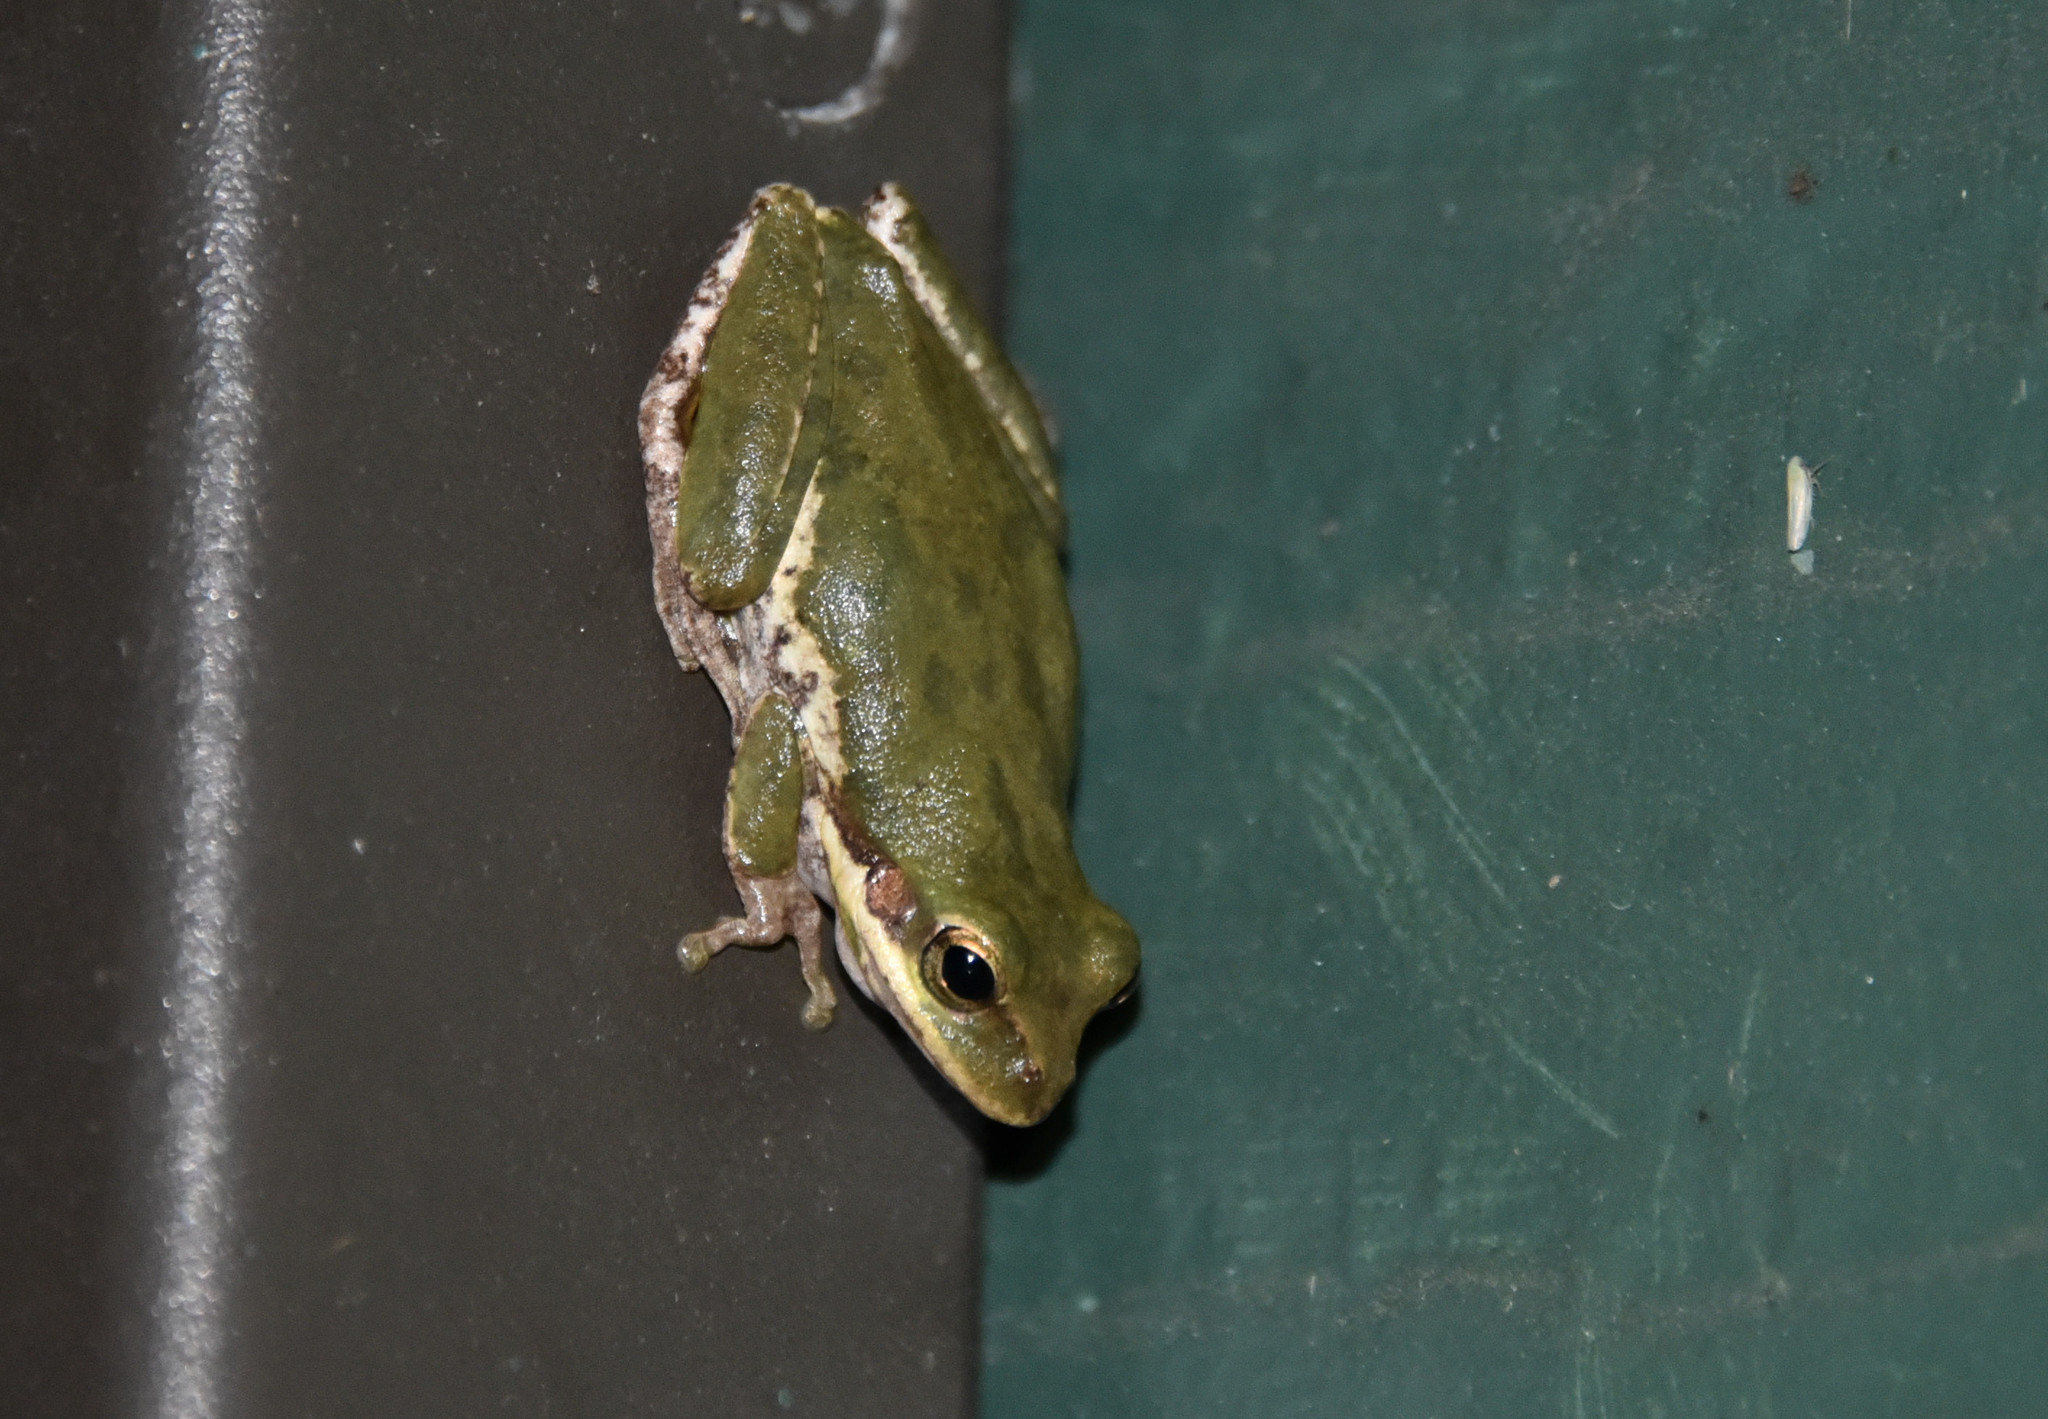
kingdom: Animalia
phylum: Chordata
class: Amphibia
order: Anura
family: Hylidae
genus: Dryophytes
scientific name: Dryophytes squirellus
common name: Squirrel treefrog
